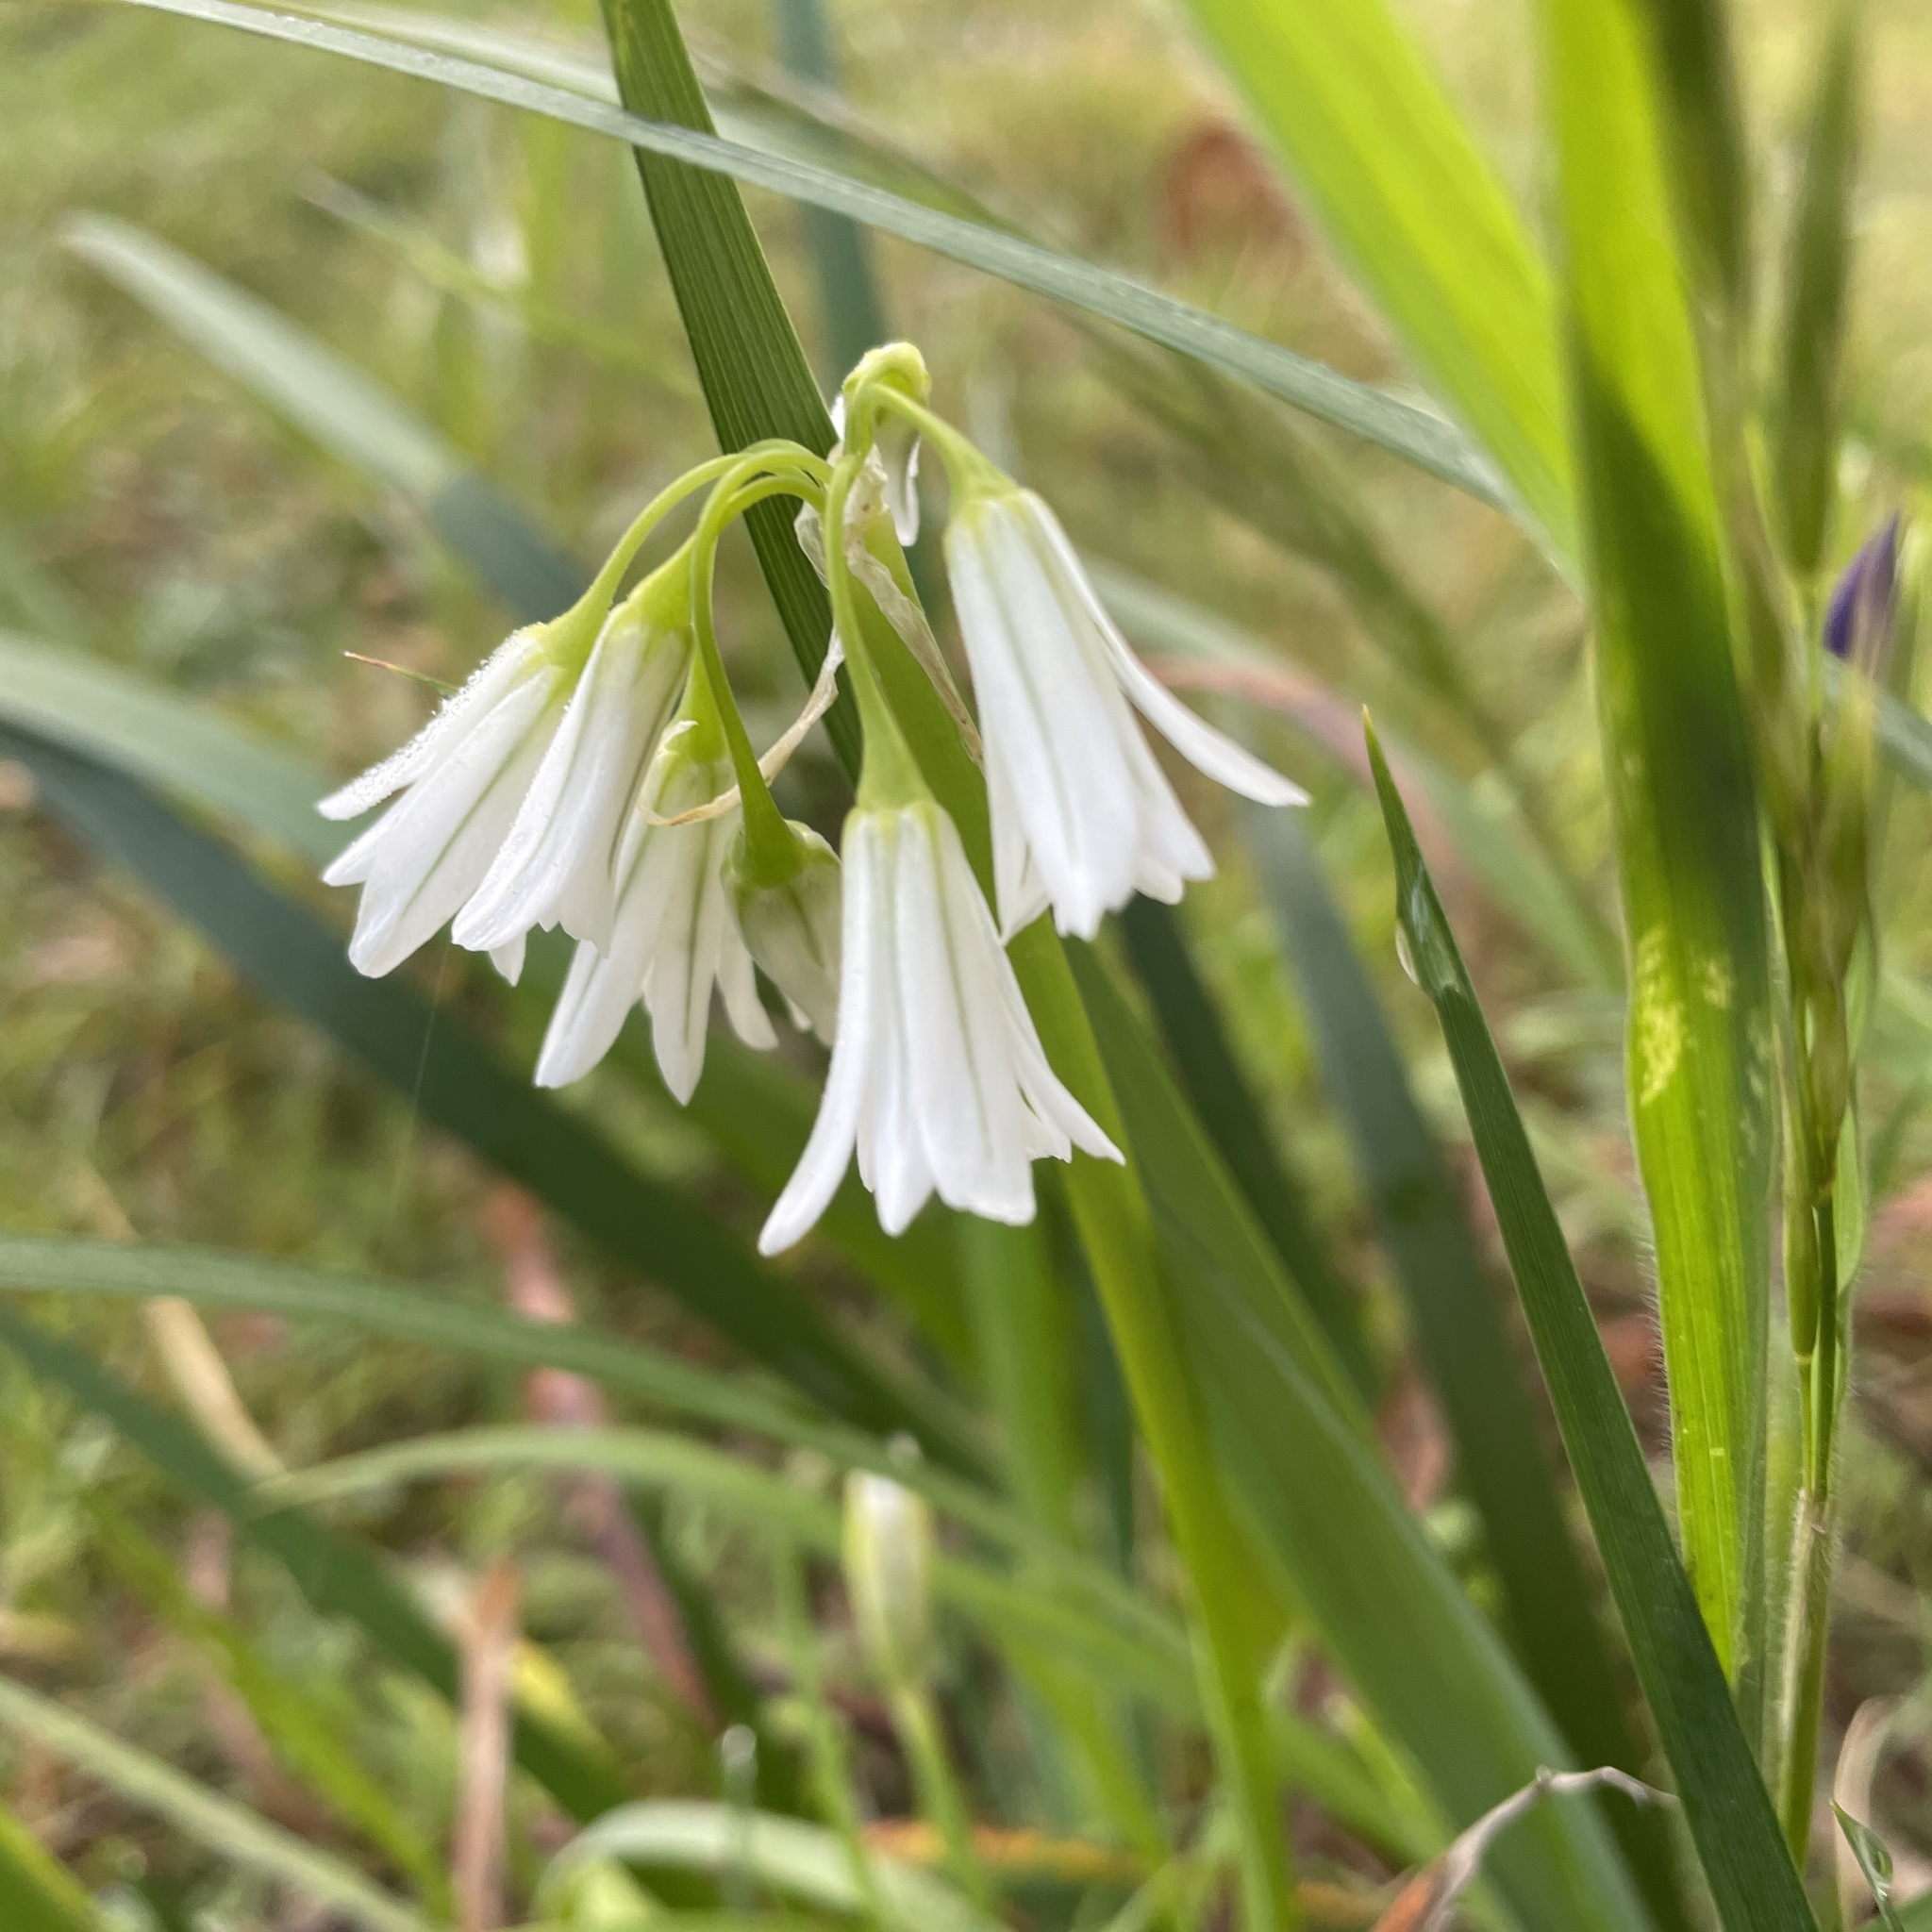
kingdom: Plantae
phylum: Tracheophyta
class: Liliopsida
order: Asparagales
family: Amaryllidaceae
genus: Allium
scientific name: Allium triquetrum
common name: Three-cornered garlic
